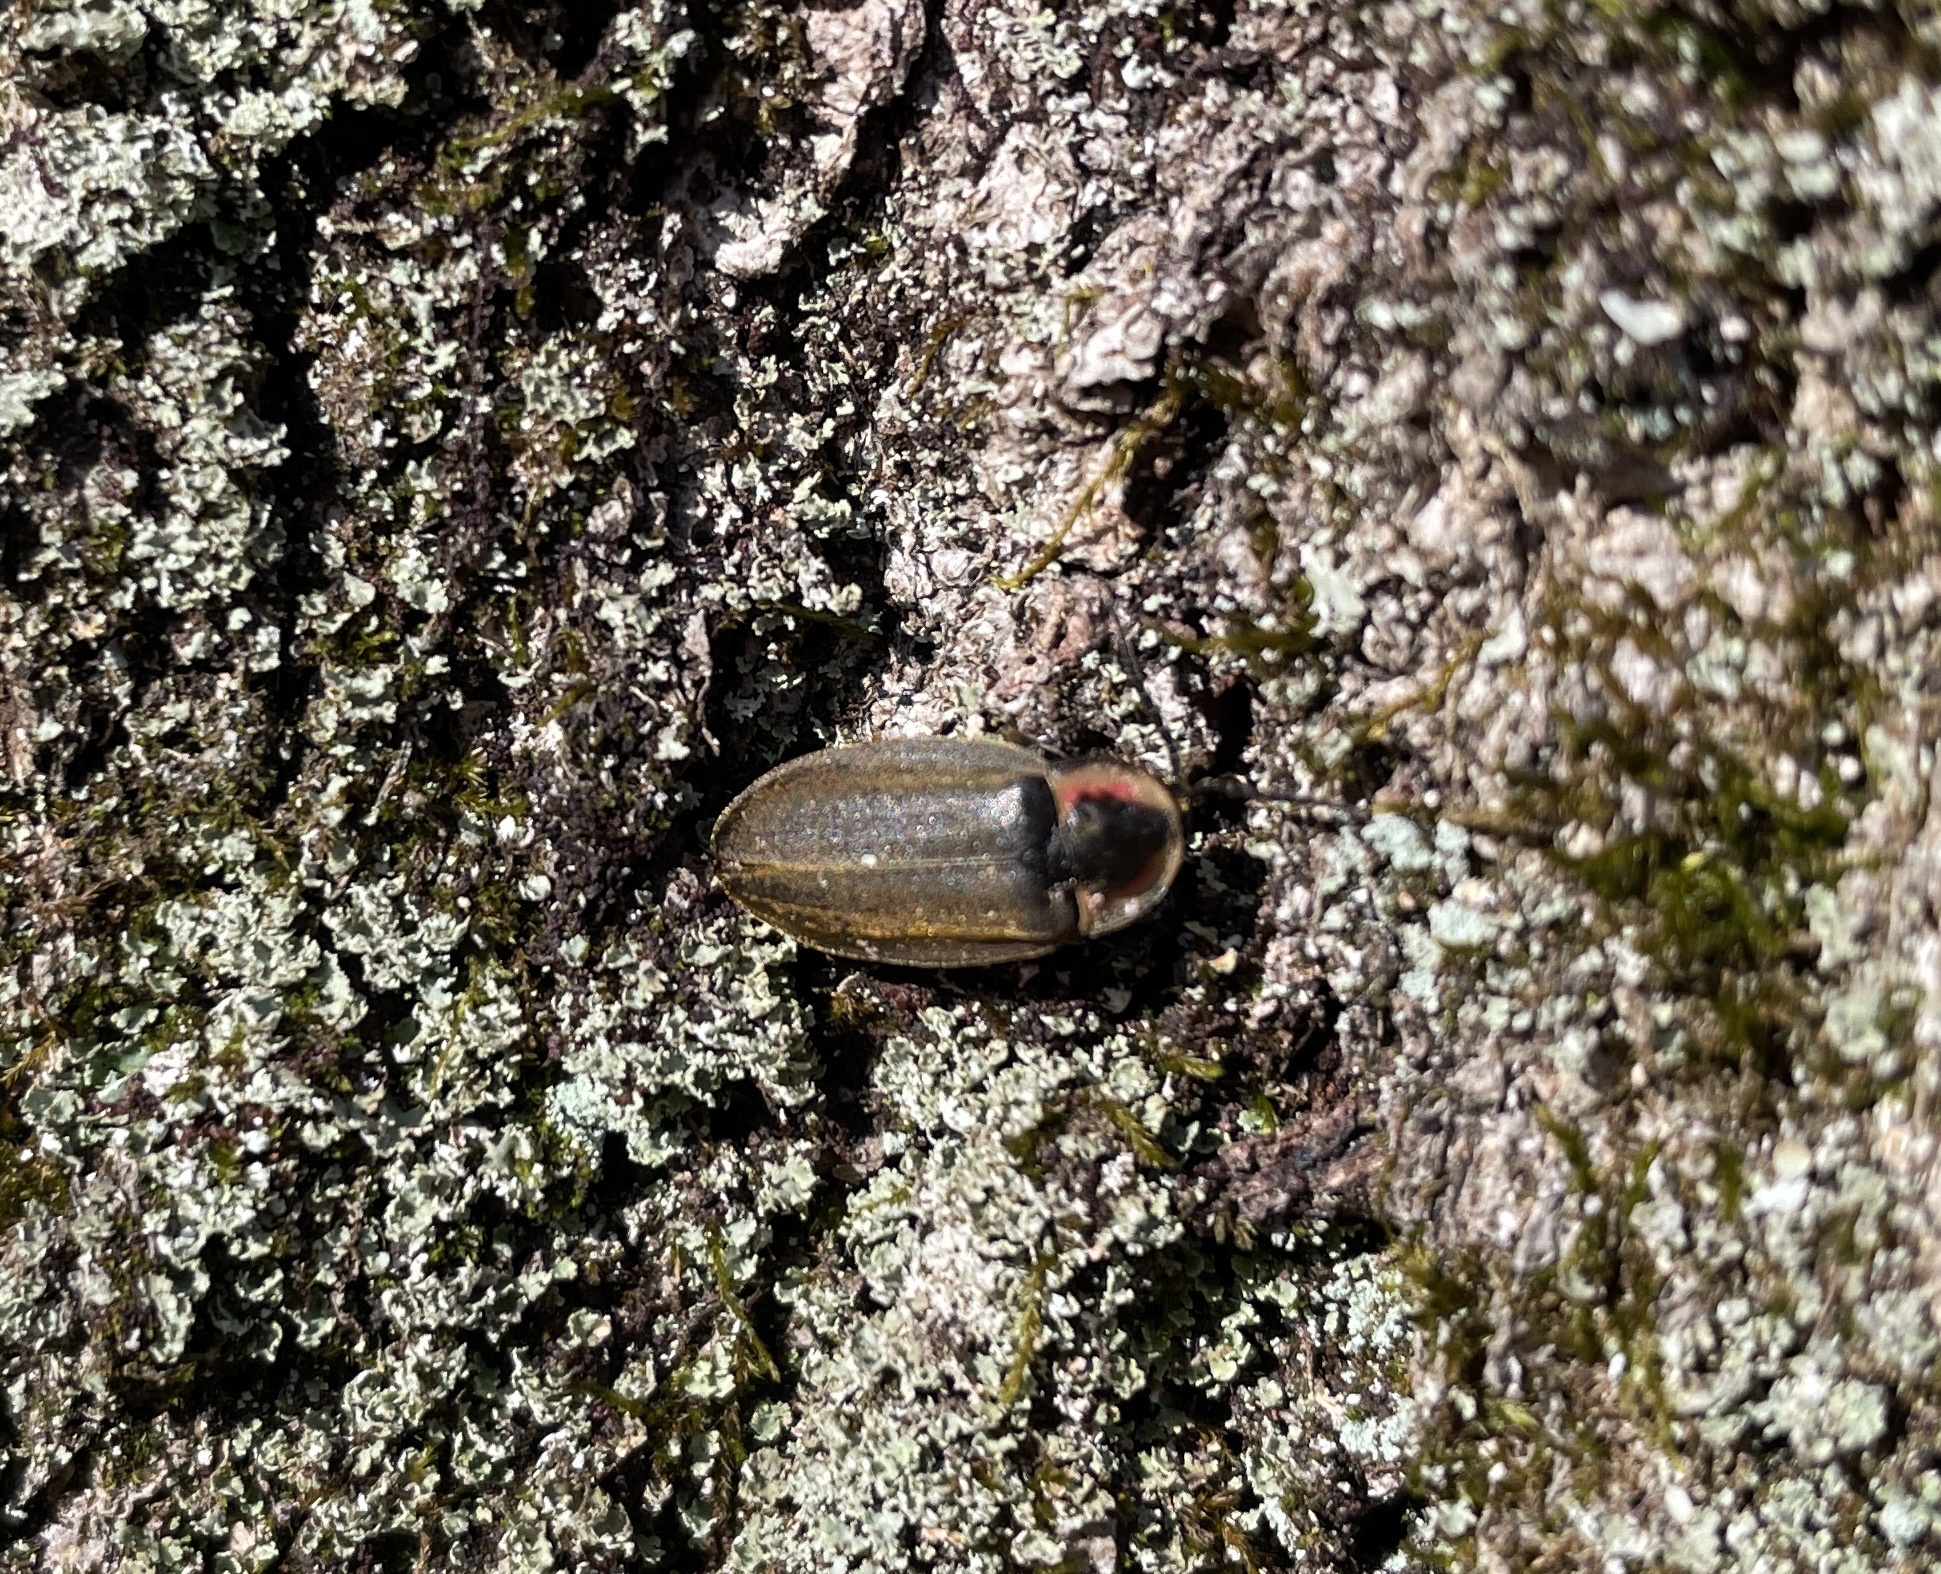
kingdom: Animalia
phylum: Arthropoda
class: Insecta
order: Coleoptera
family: Lampyridae
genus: Photinus
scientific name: Photinus corrusca
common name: Winter firefly
